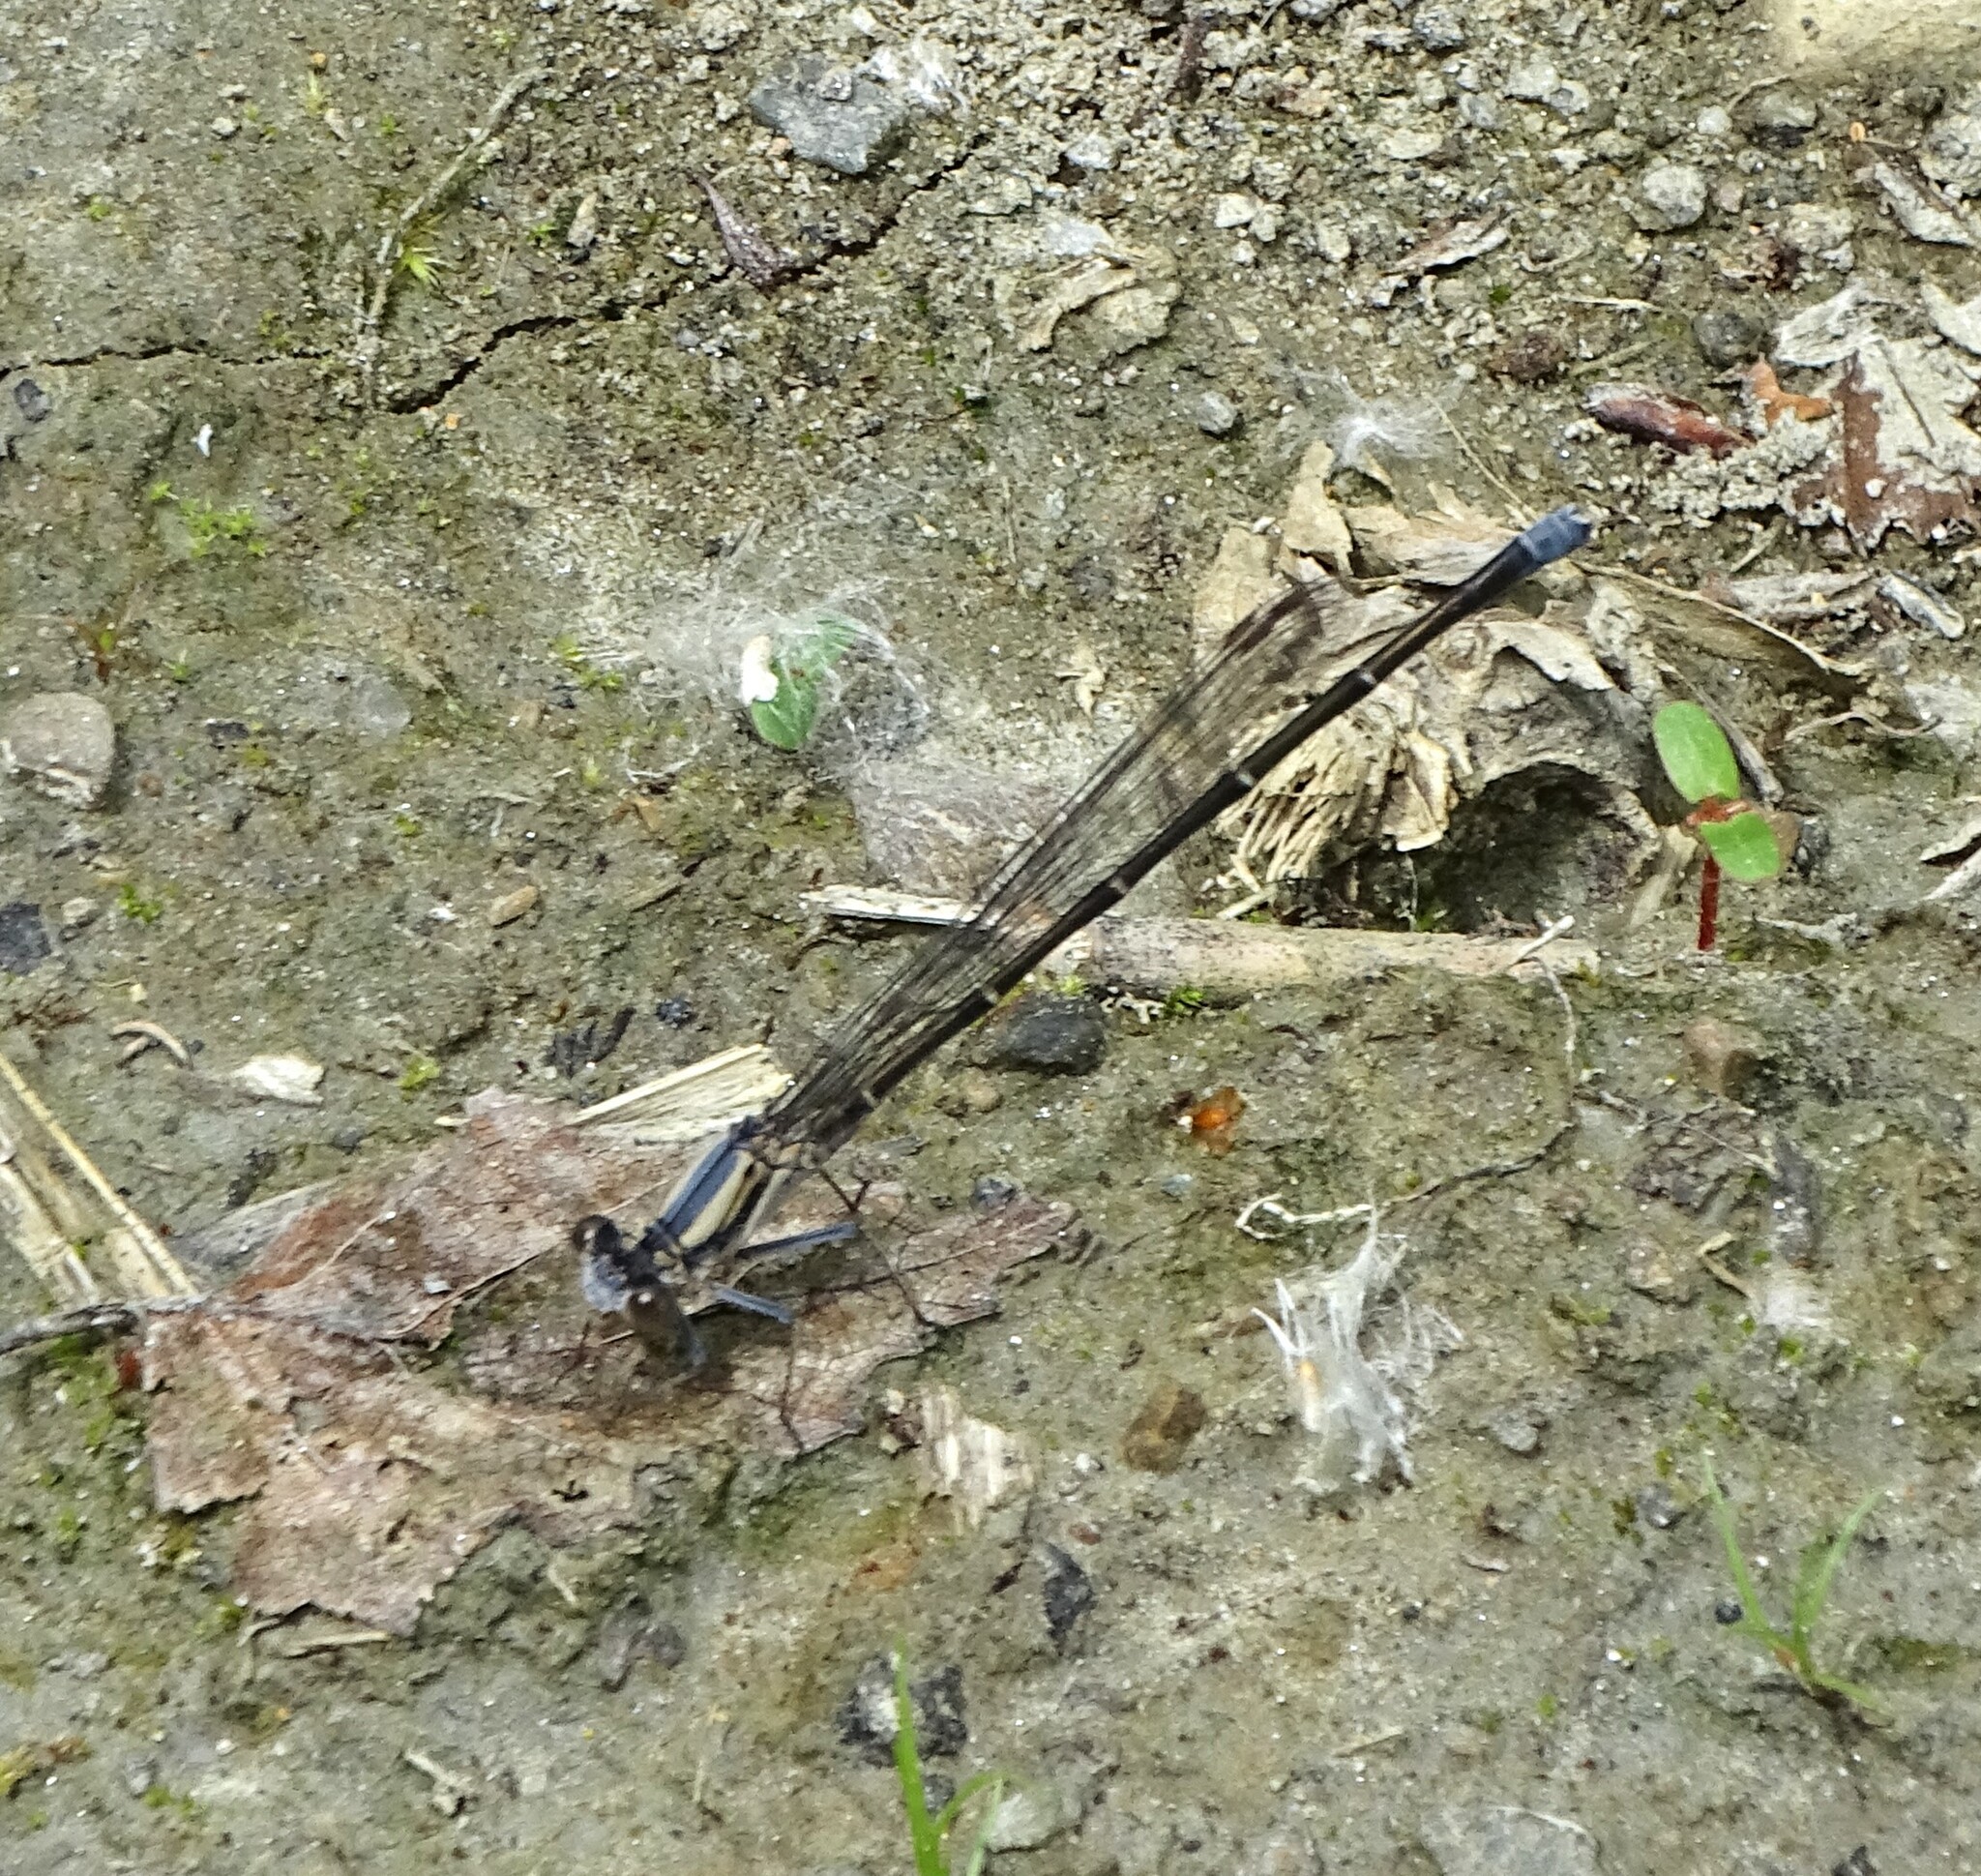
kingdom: Animalia
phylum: Arthropoda
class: Insecta
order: Odonata
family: Coenagrionidae
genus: Argia
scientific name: Argia moesta
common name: Powdered dancer
